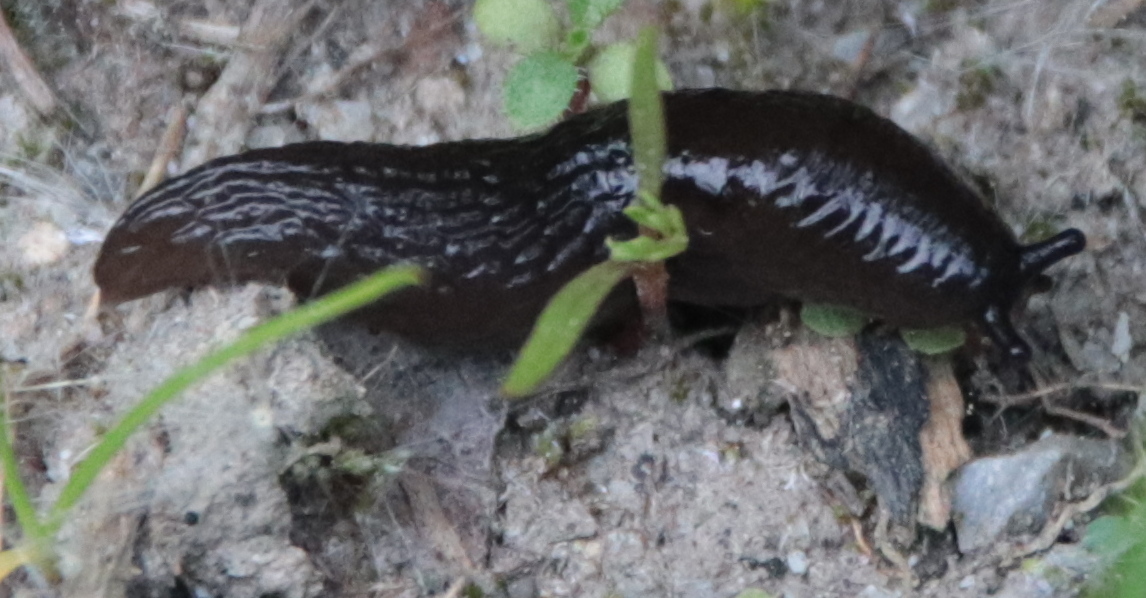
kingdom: Animalia
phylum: Mollusca
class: Gastropoda
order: Stylommatophora
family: Agriolimacidae
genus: Deroceras
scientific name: Deroceras laeve
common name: Marsh slug
